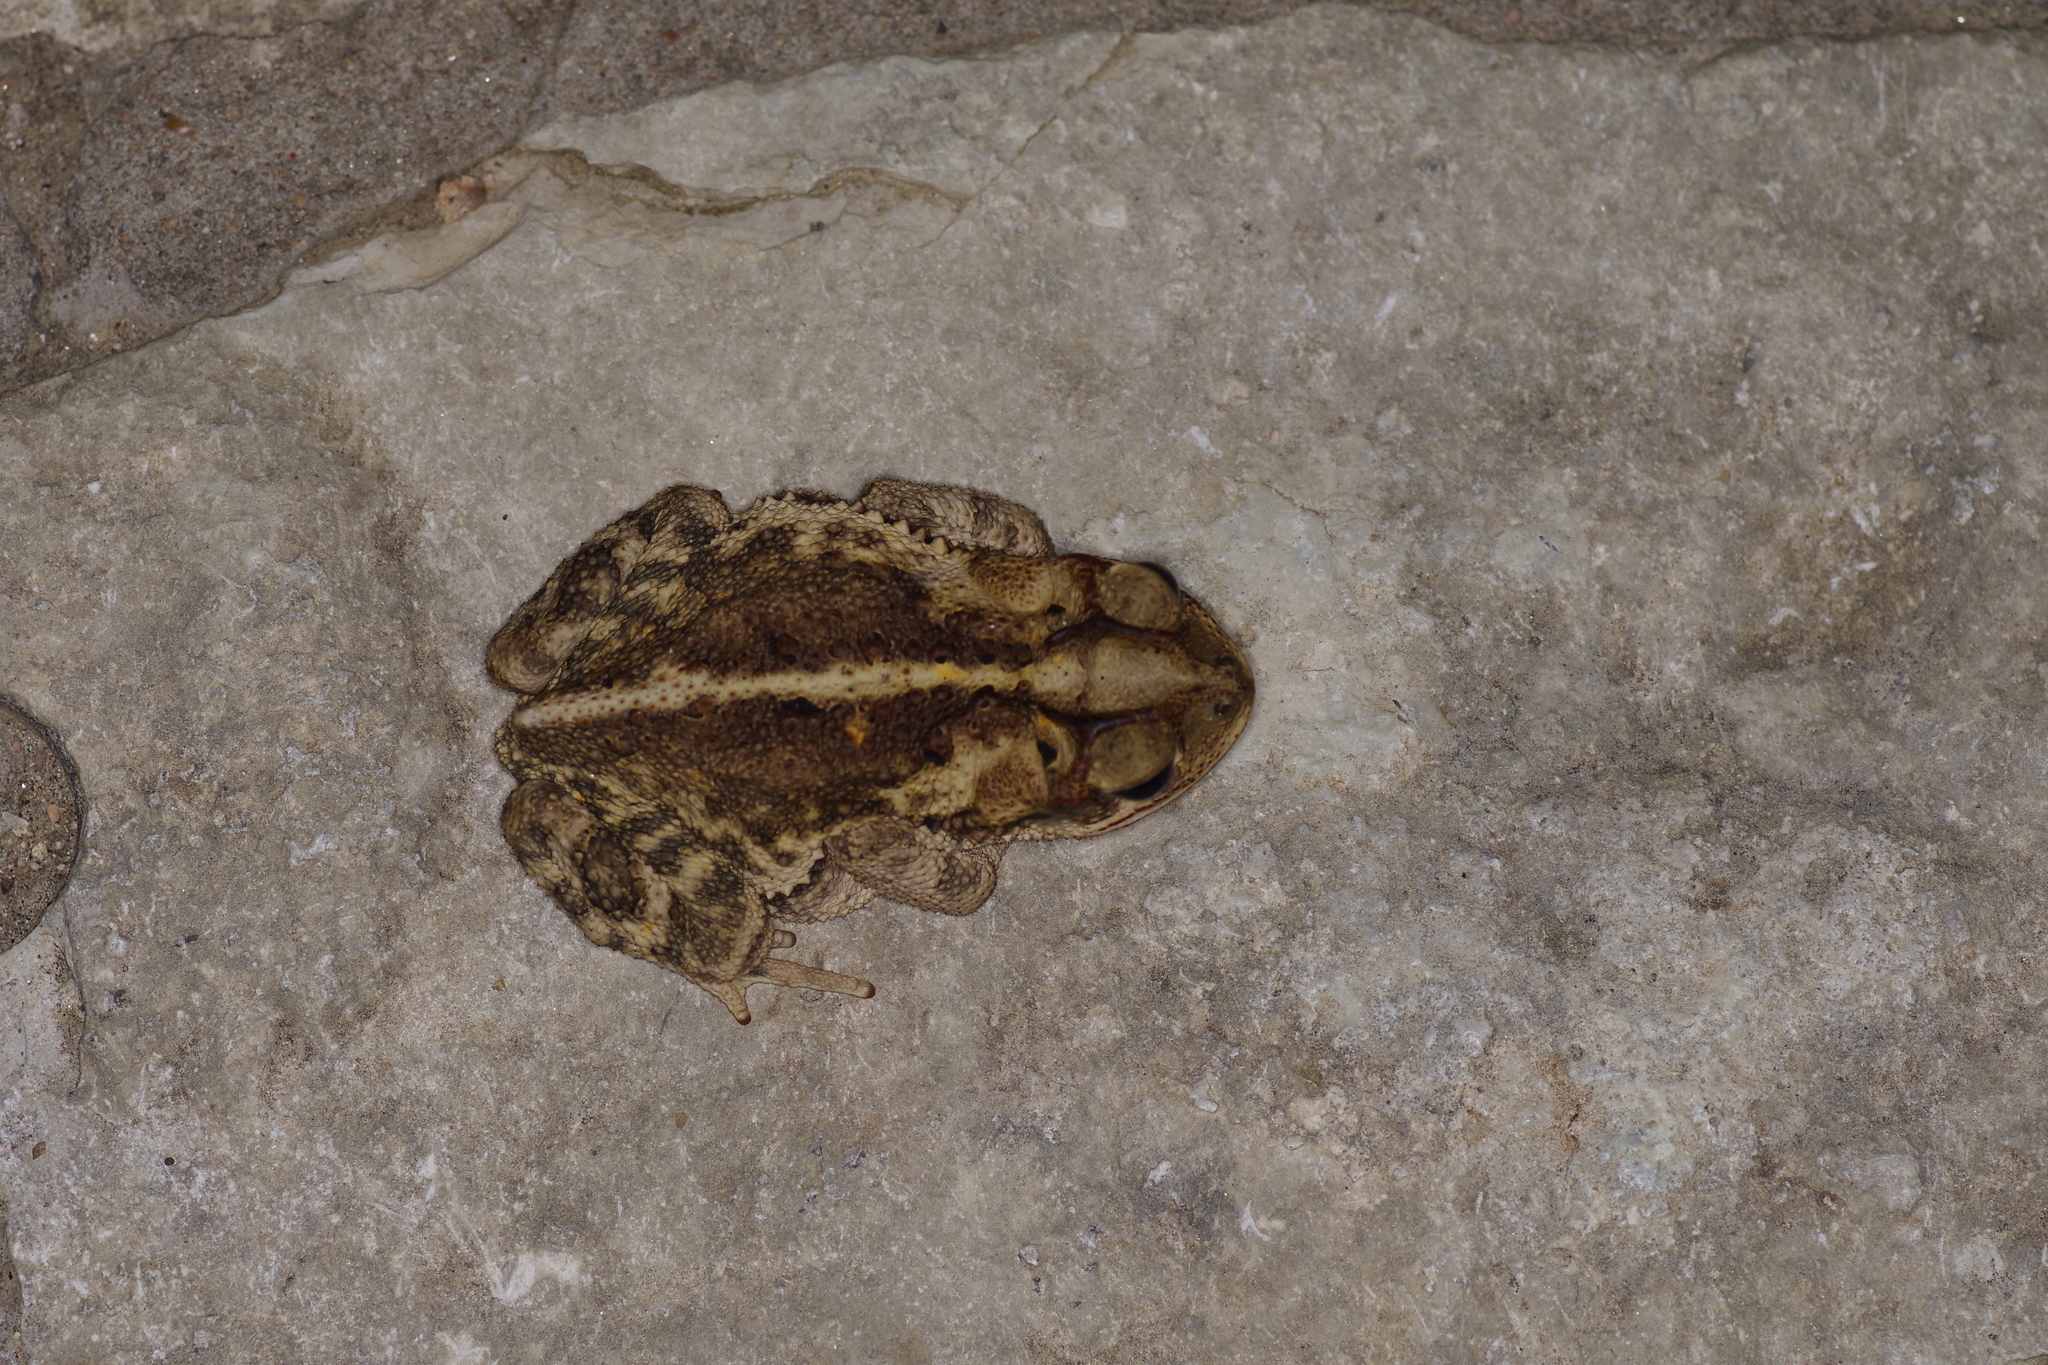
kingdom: Animalia
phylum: Chordata
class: Amphibia
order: Anura
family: Bufonidae
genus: Incilius
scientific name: Incilius nebulifer
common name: Gulf coast toad
